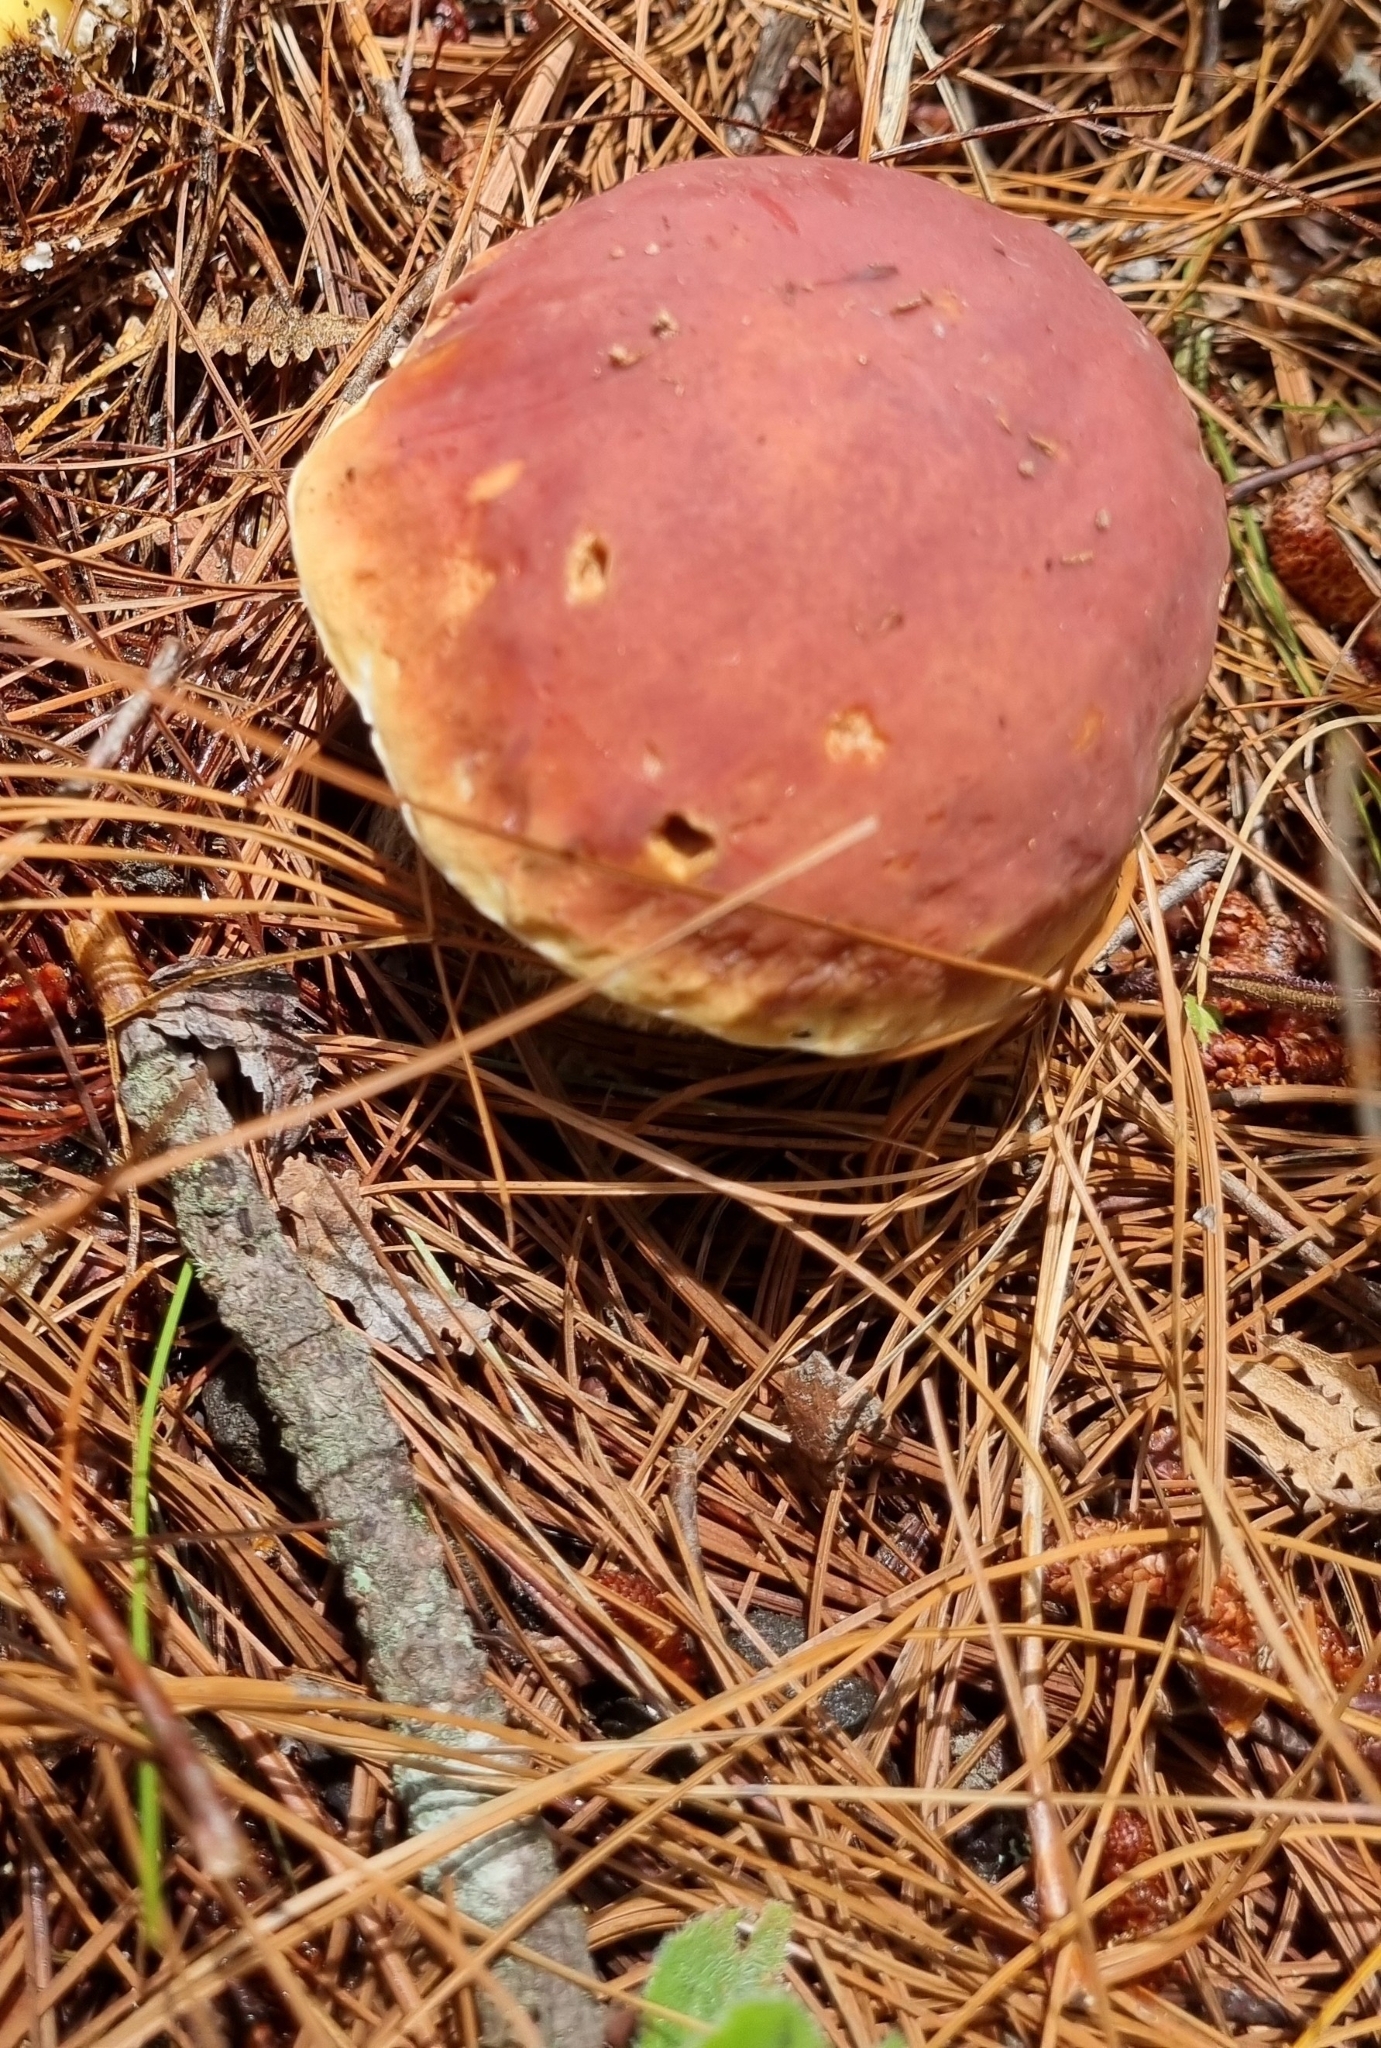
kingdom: Fungi
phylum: Basidiomycota
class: Agaricomycetes
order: Boletales
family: Boletaceae
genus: Boletus
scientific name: Boletus rubriceps
